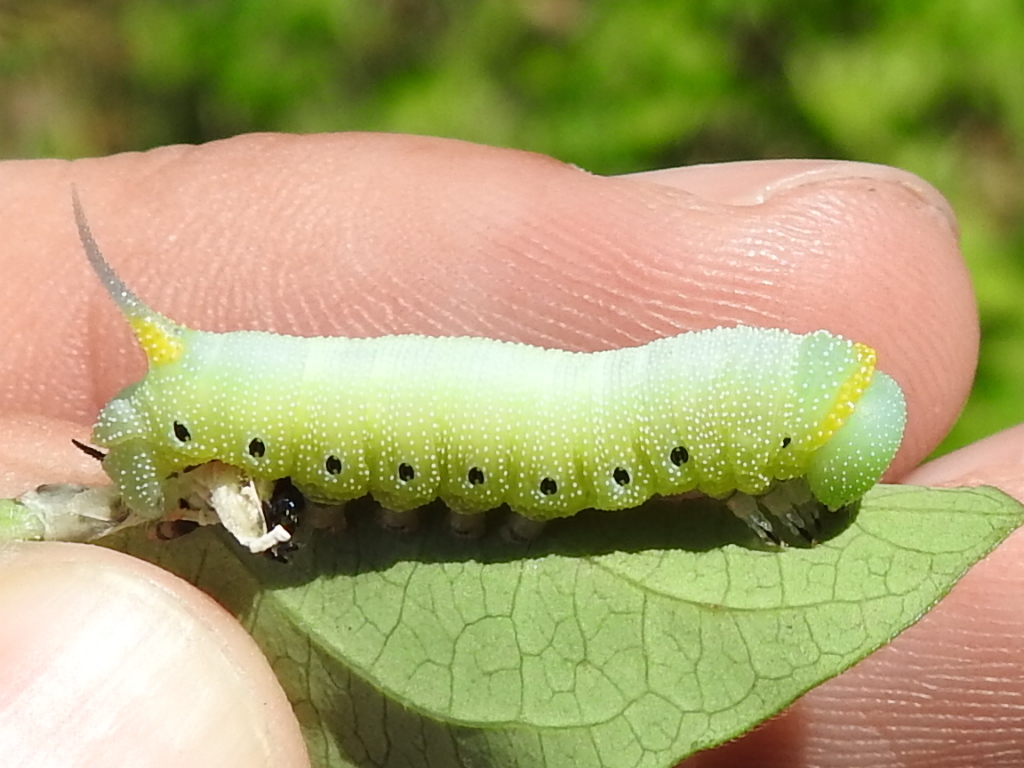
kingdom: Animalia
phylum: Arthropoda
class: Insecta
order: Lepidoptera
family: Sphingidae
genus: Hemaris
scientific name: Hemaris diffinis
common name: Bumblebee moth
